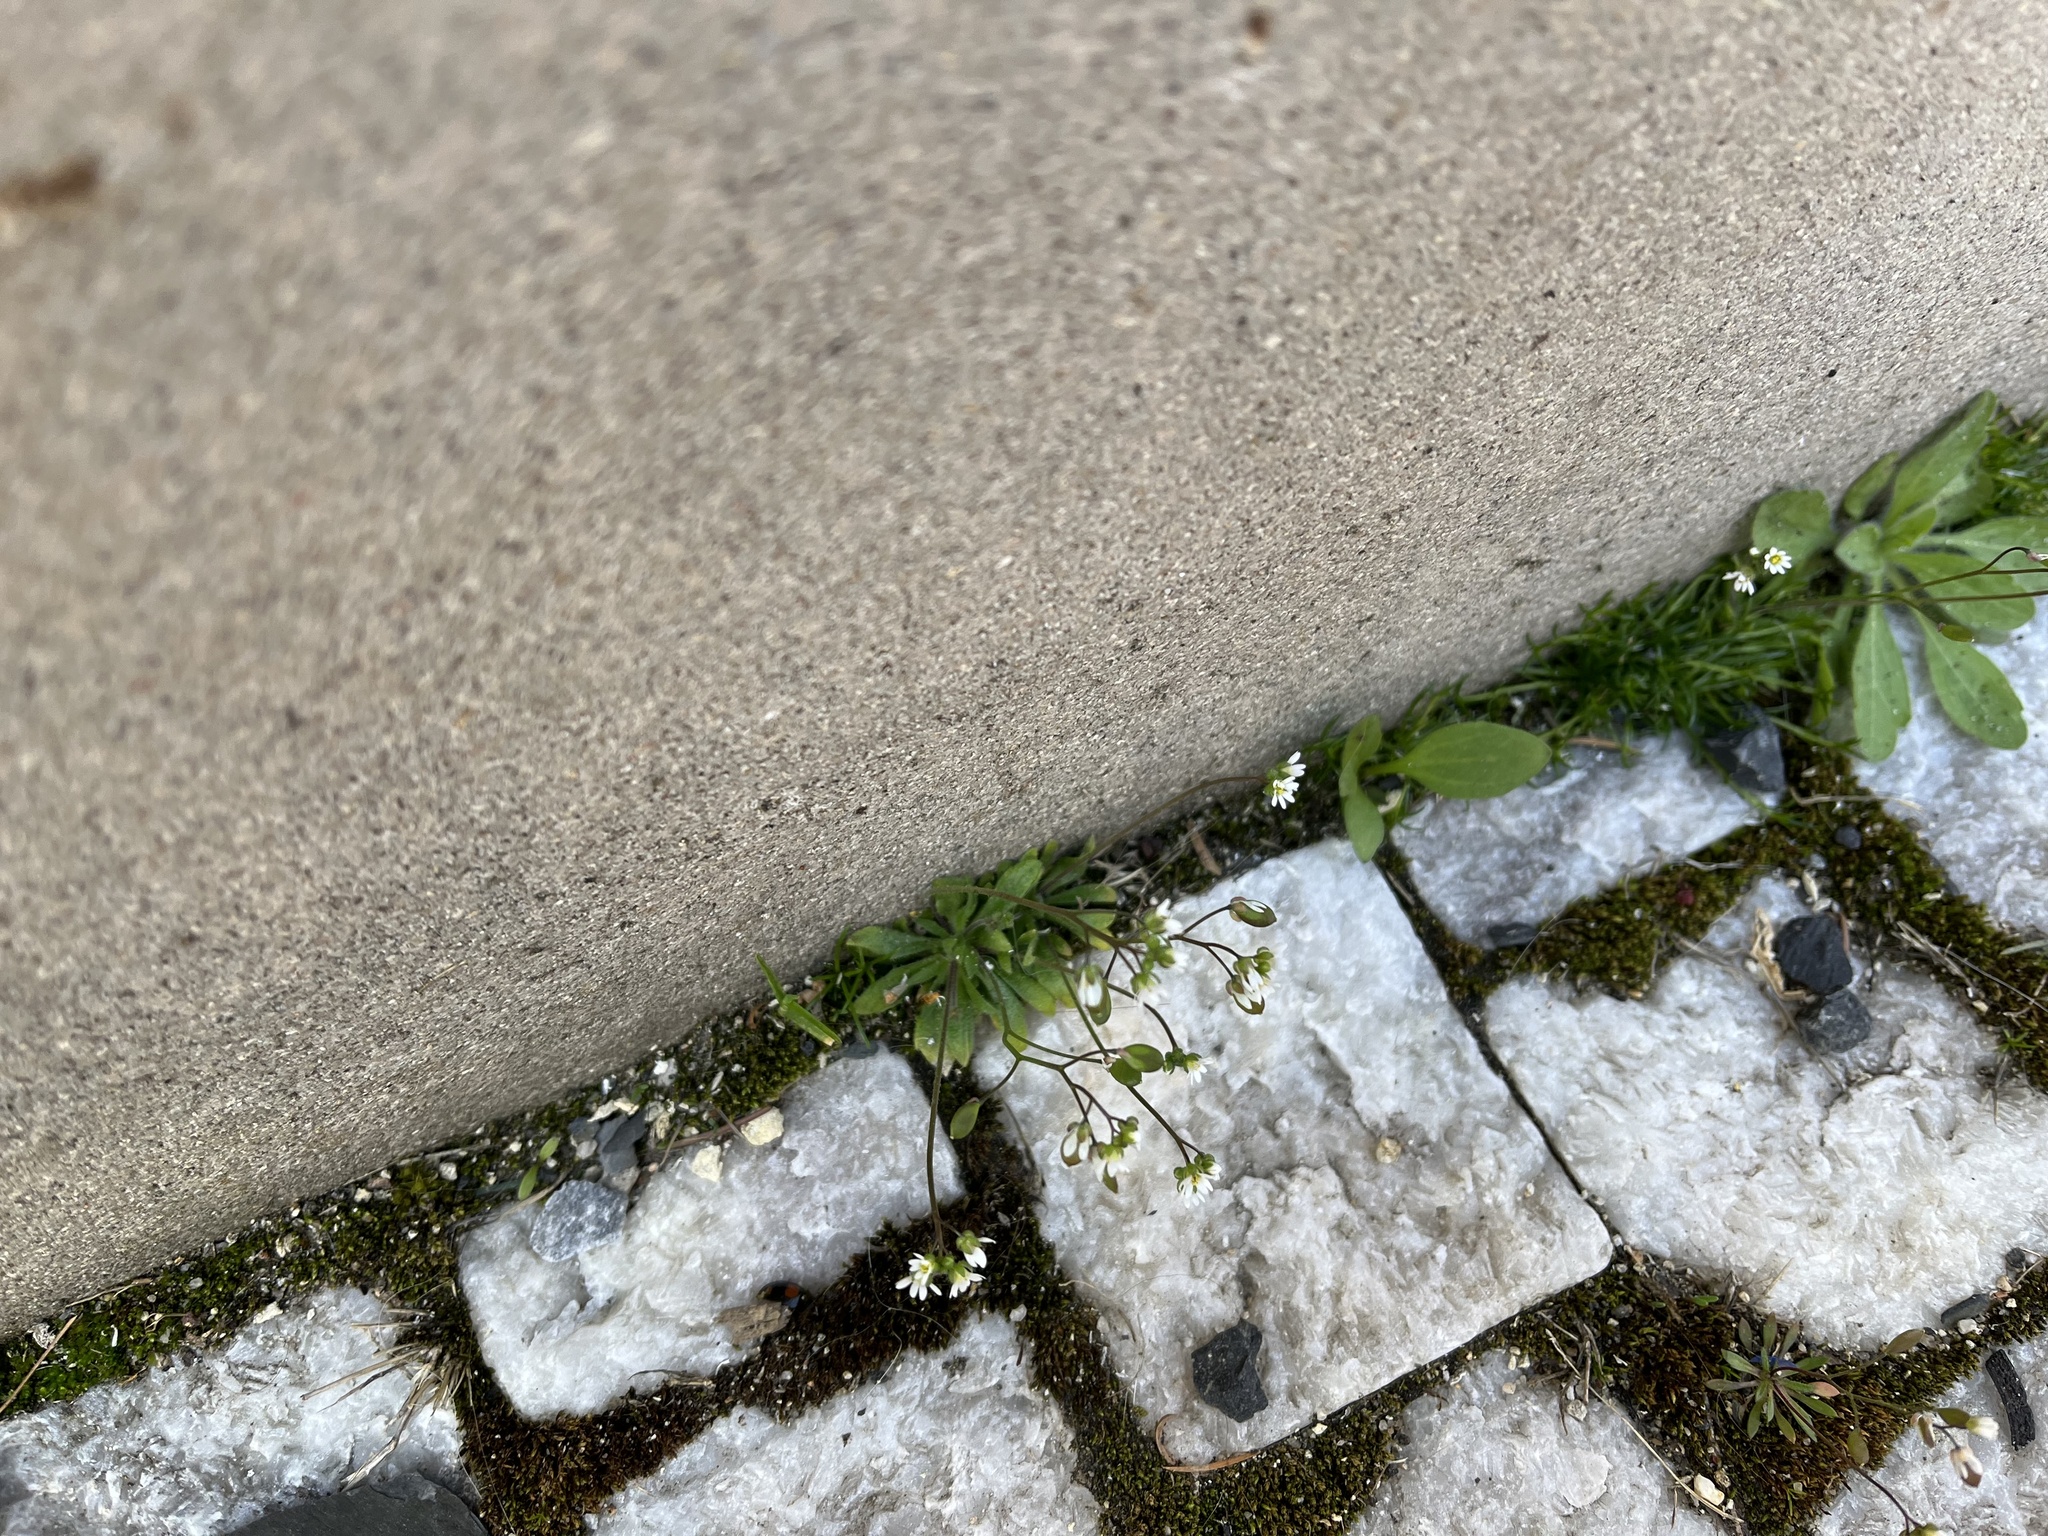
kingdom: Plantae
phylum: Tracheophyta
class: Magnoliopsida
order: Brassicales
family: Brassicaceae
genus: Draba
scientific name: Draba verna
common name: Spring draba
